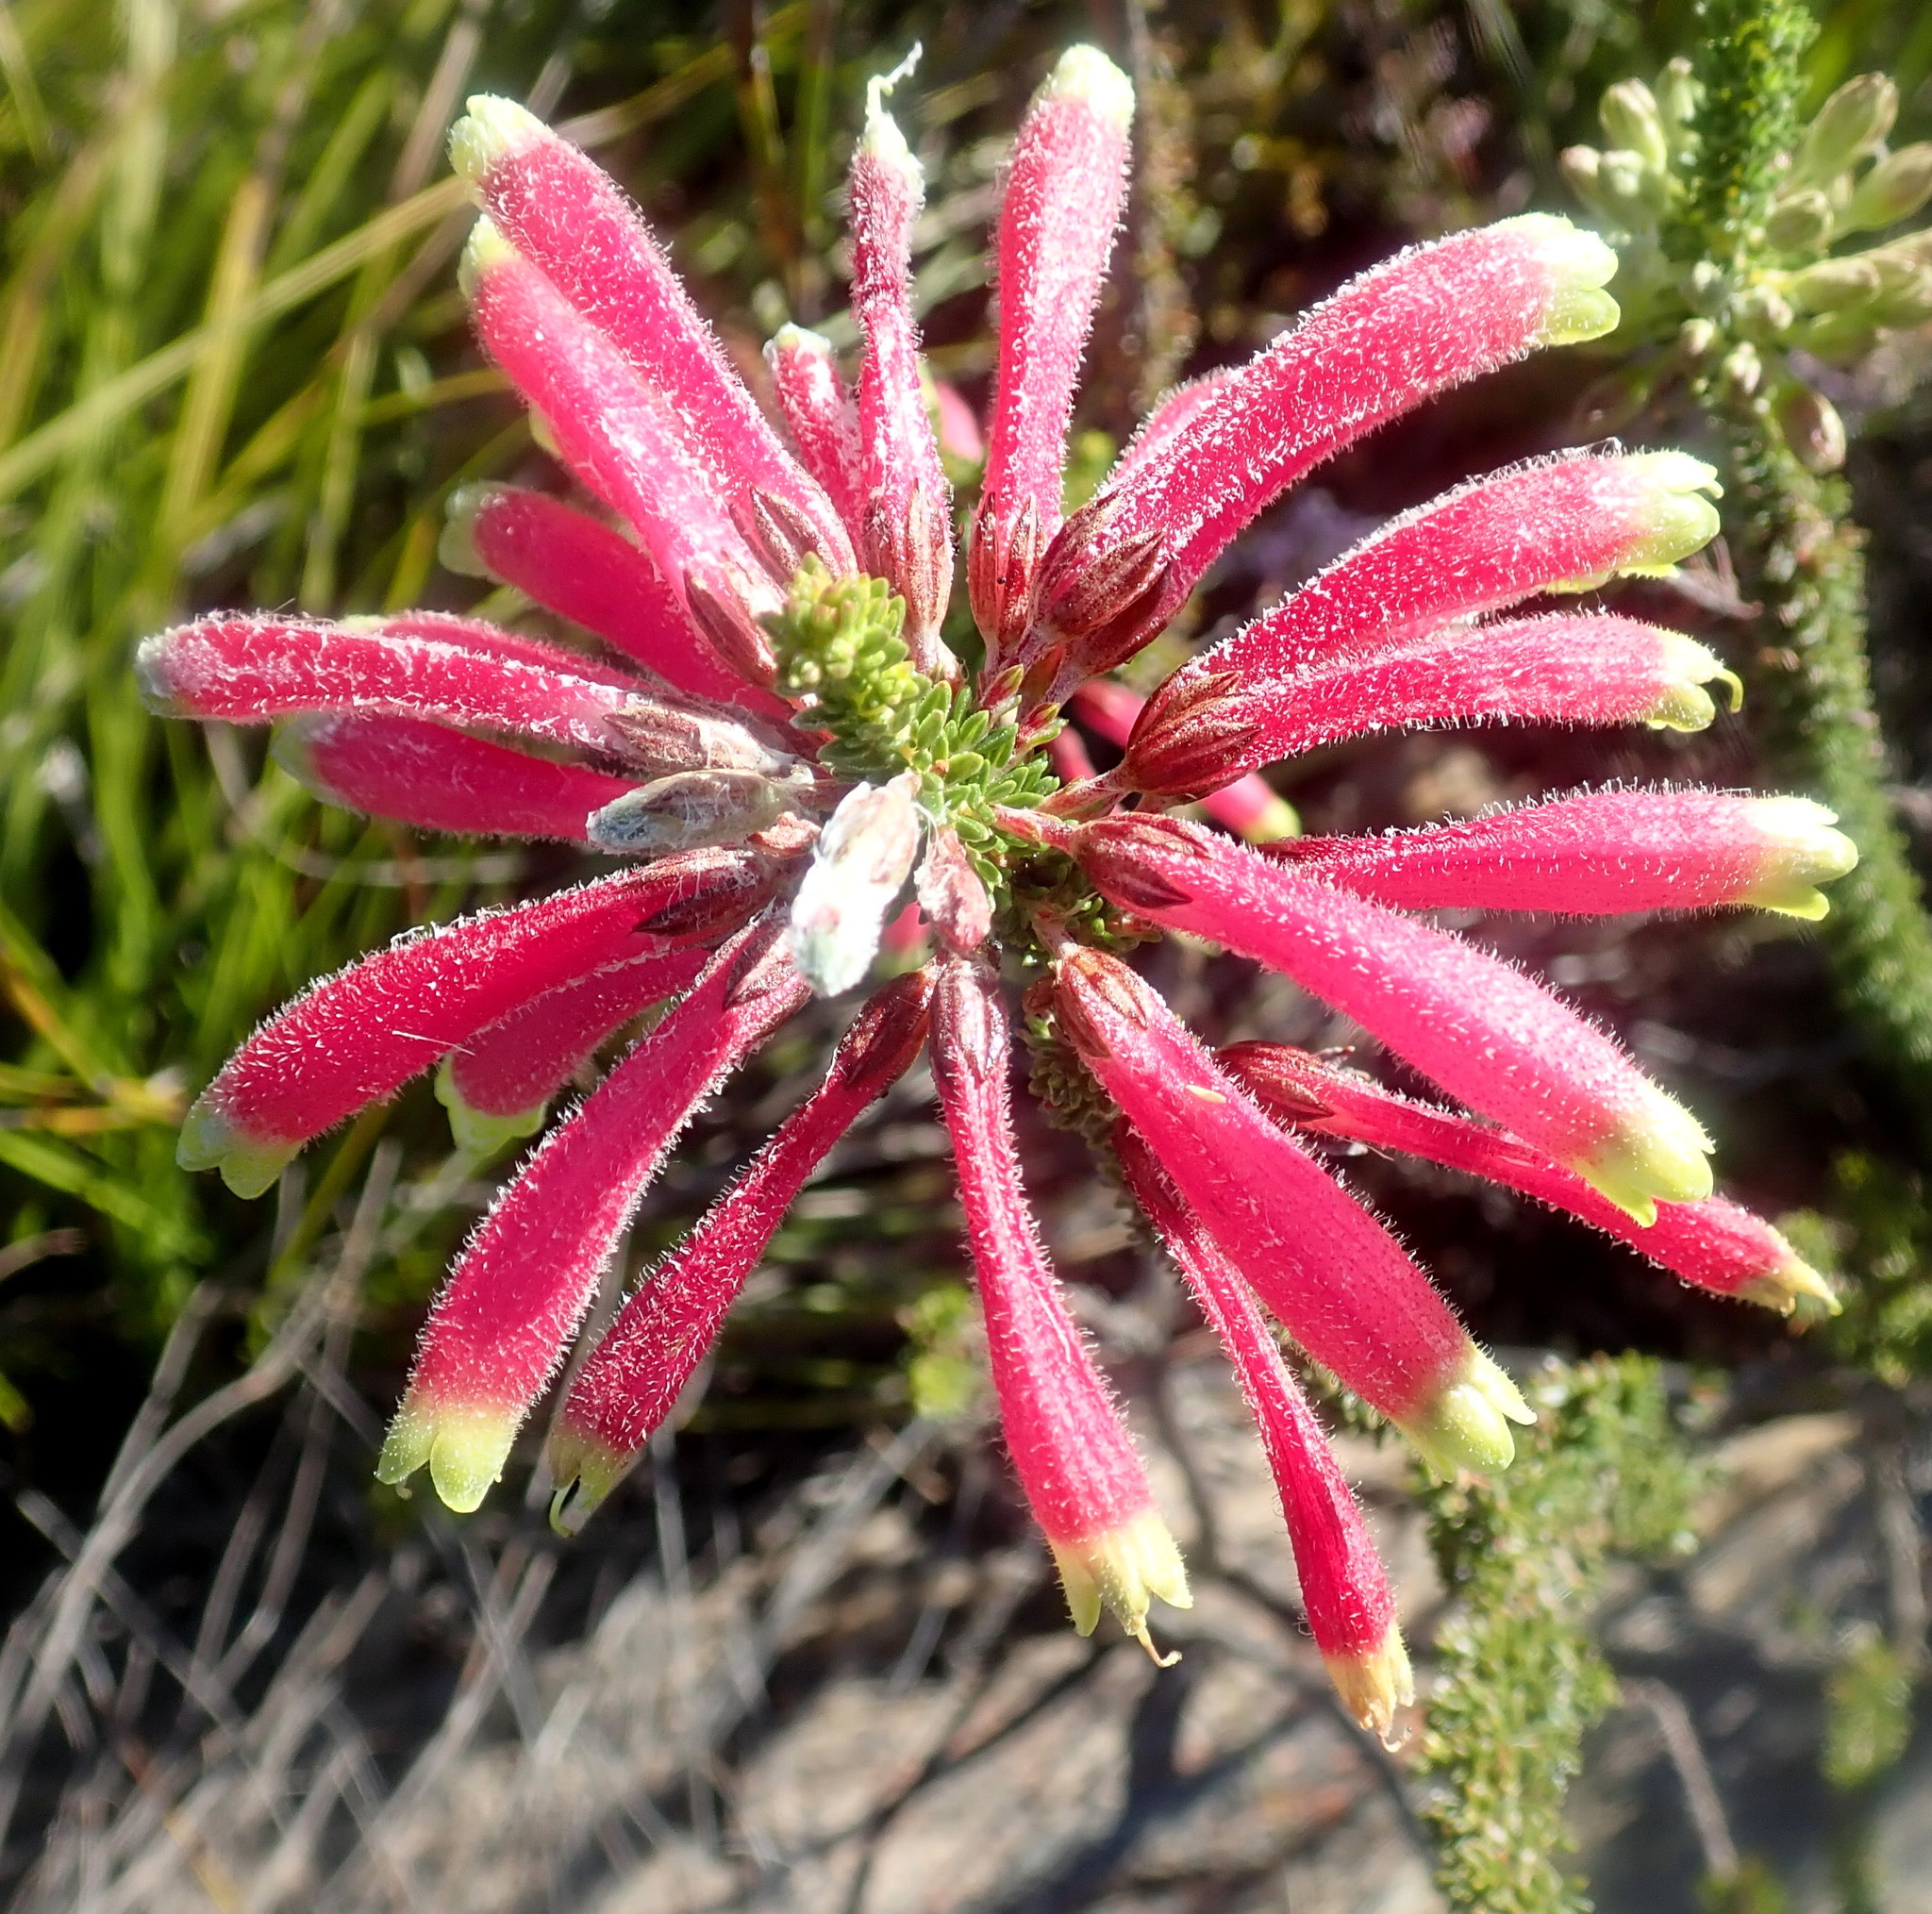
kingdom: Plantae
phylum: Tracheophyta
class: Magnoliopsida
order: Ericales
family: Ericaceae
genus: Erica
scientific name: Erica densifolia
